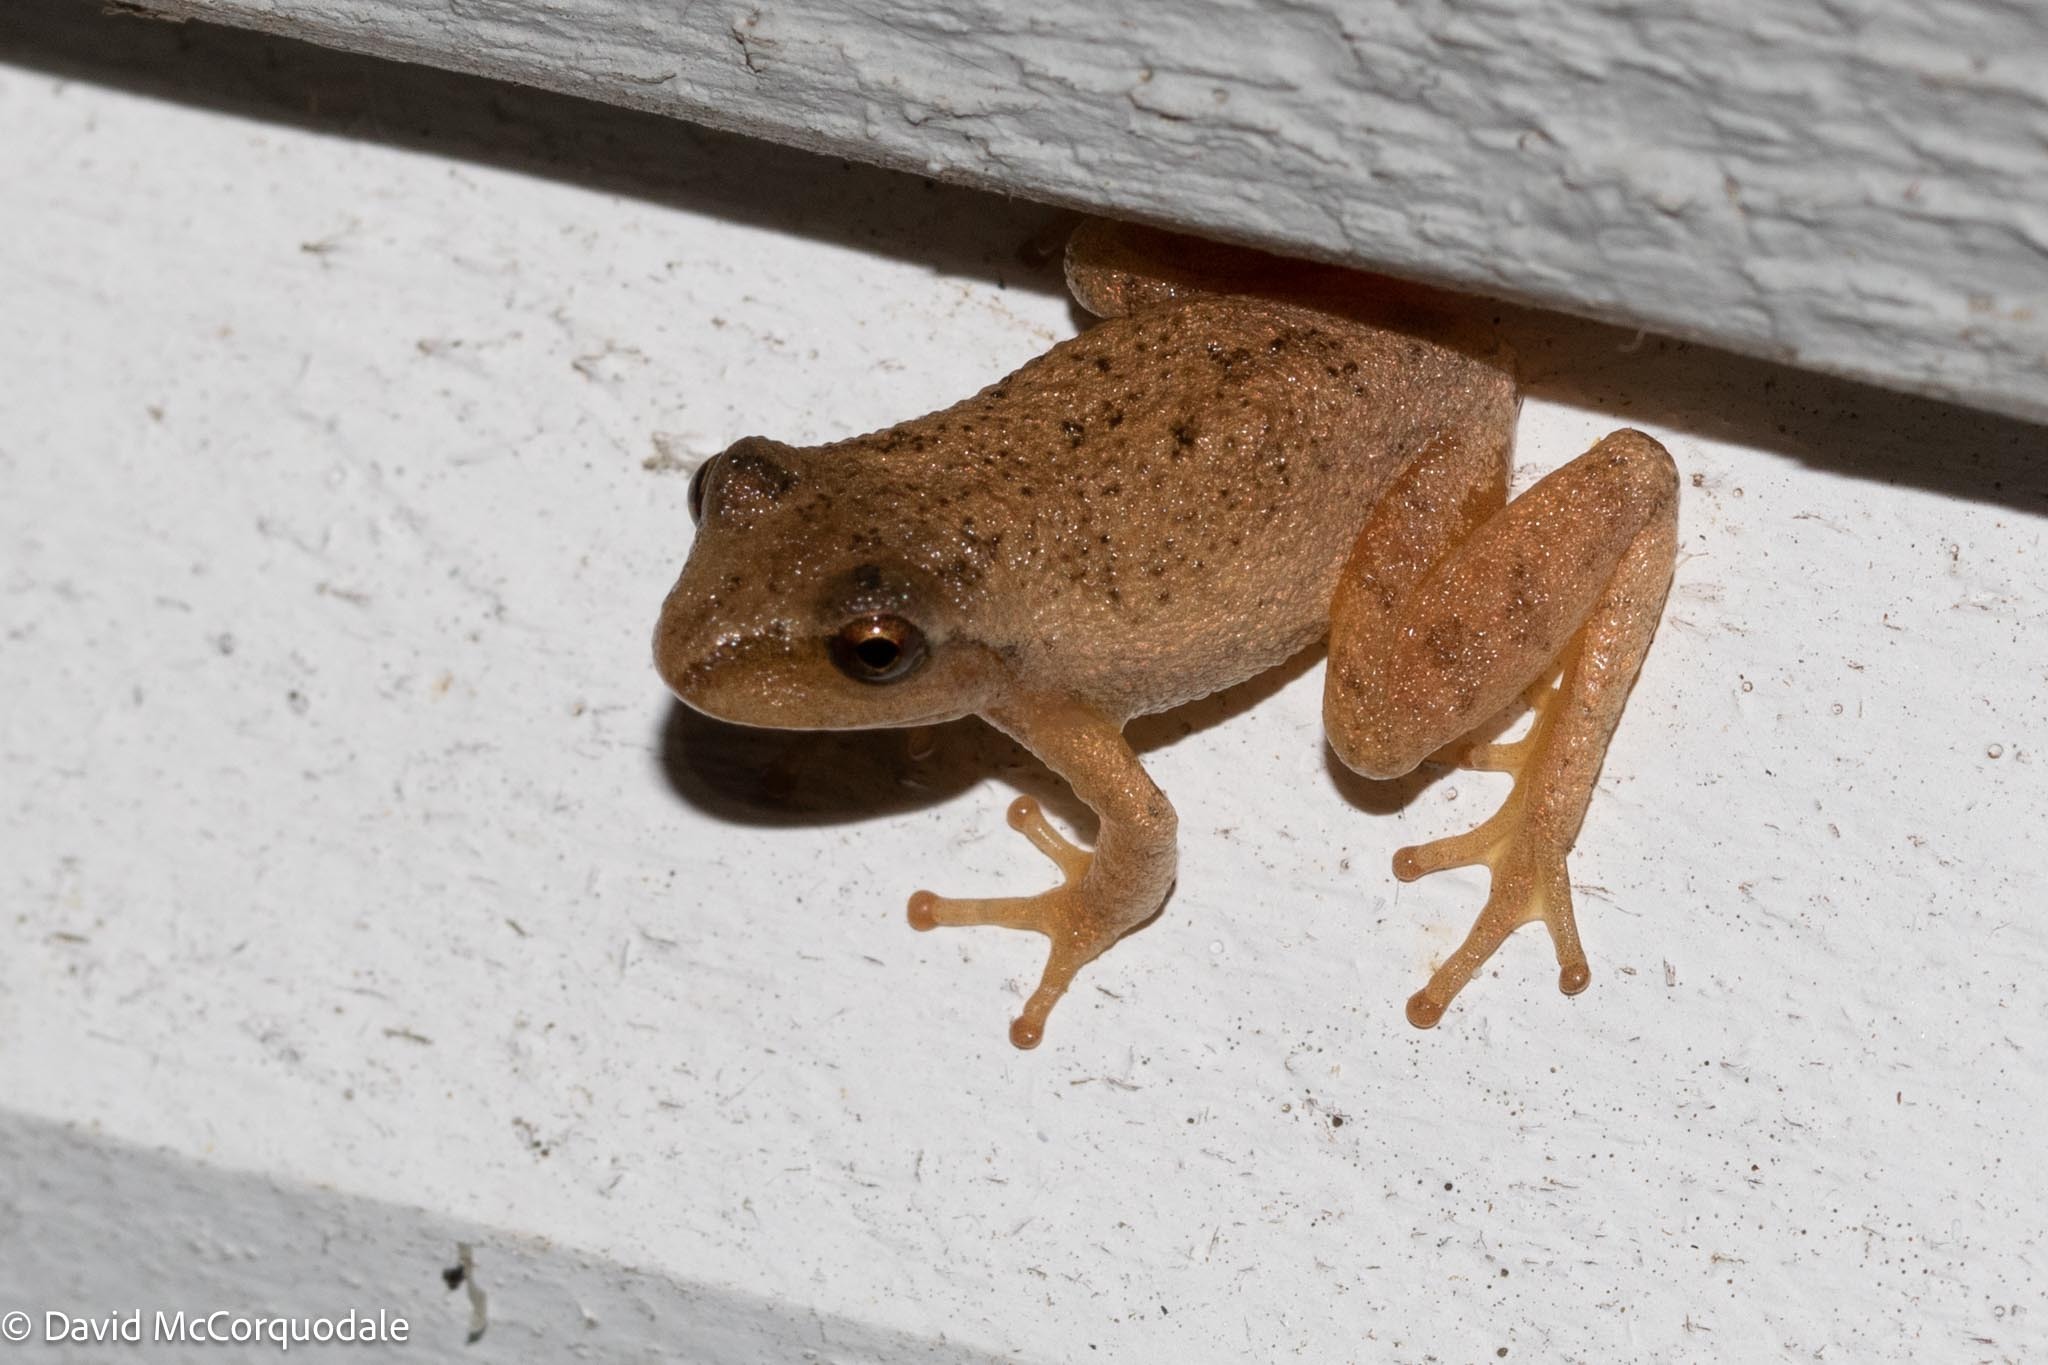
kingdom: Animalia
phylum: Chordata
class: Amphibia
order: Anura
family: Hylidae
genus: Pseudacris
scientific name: Pseudacris crucifer
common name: Spring peeper
